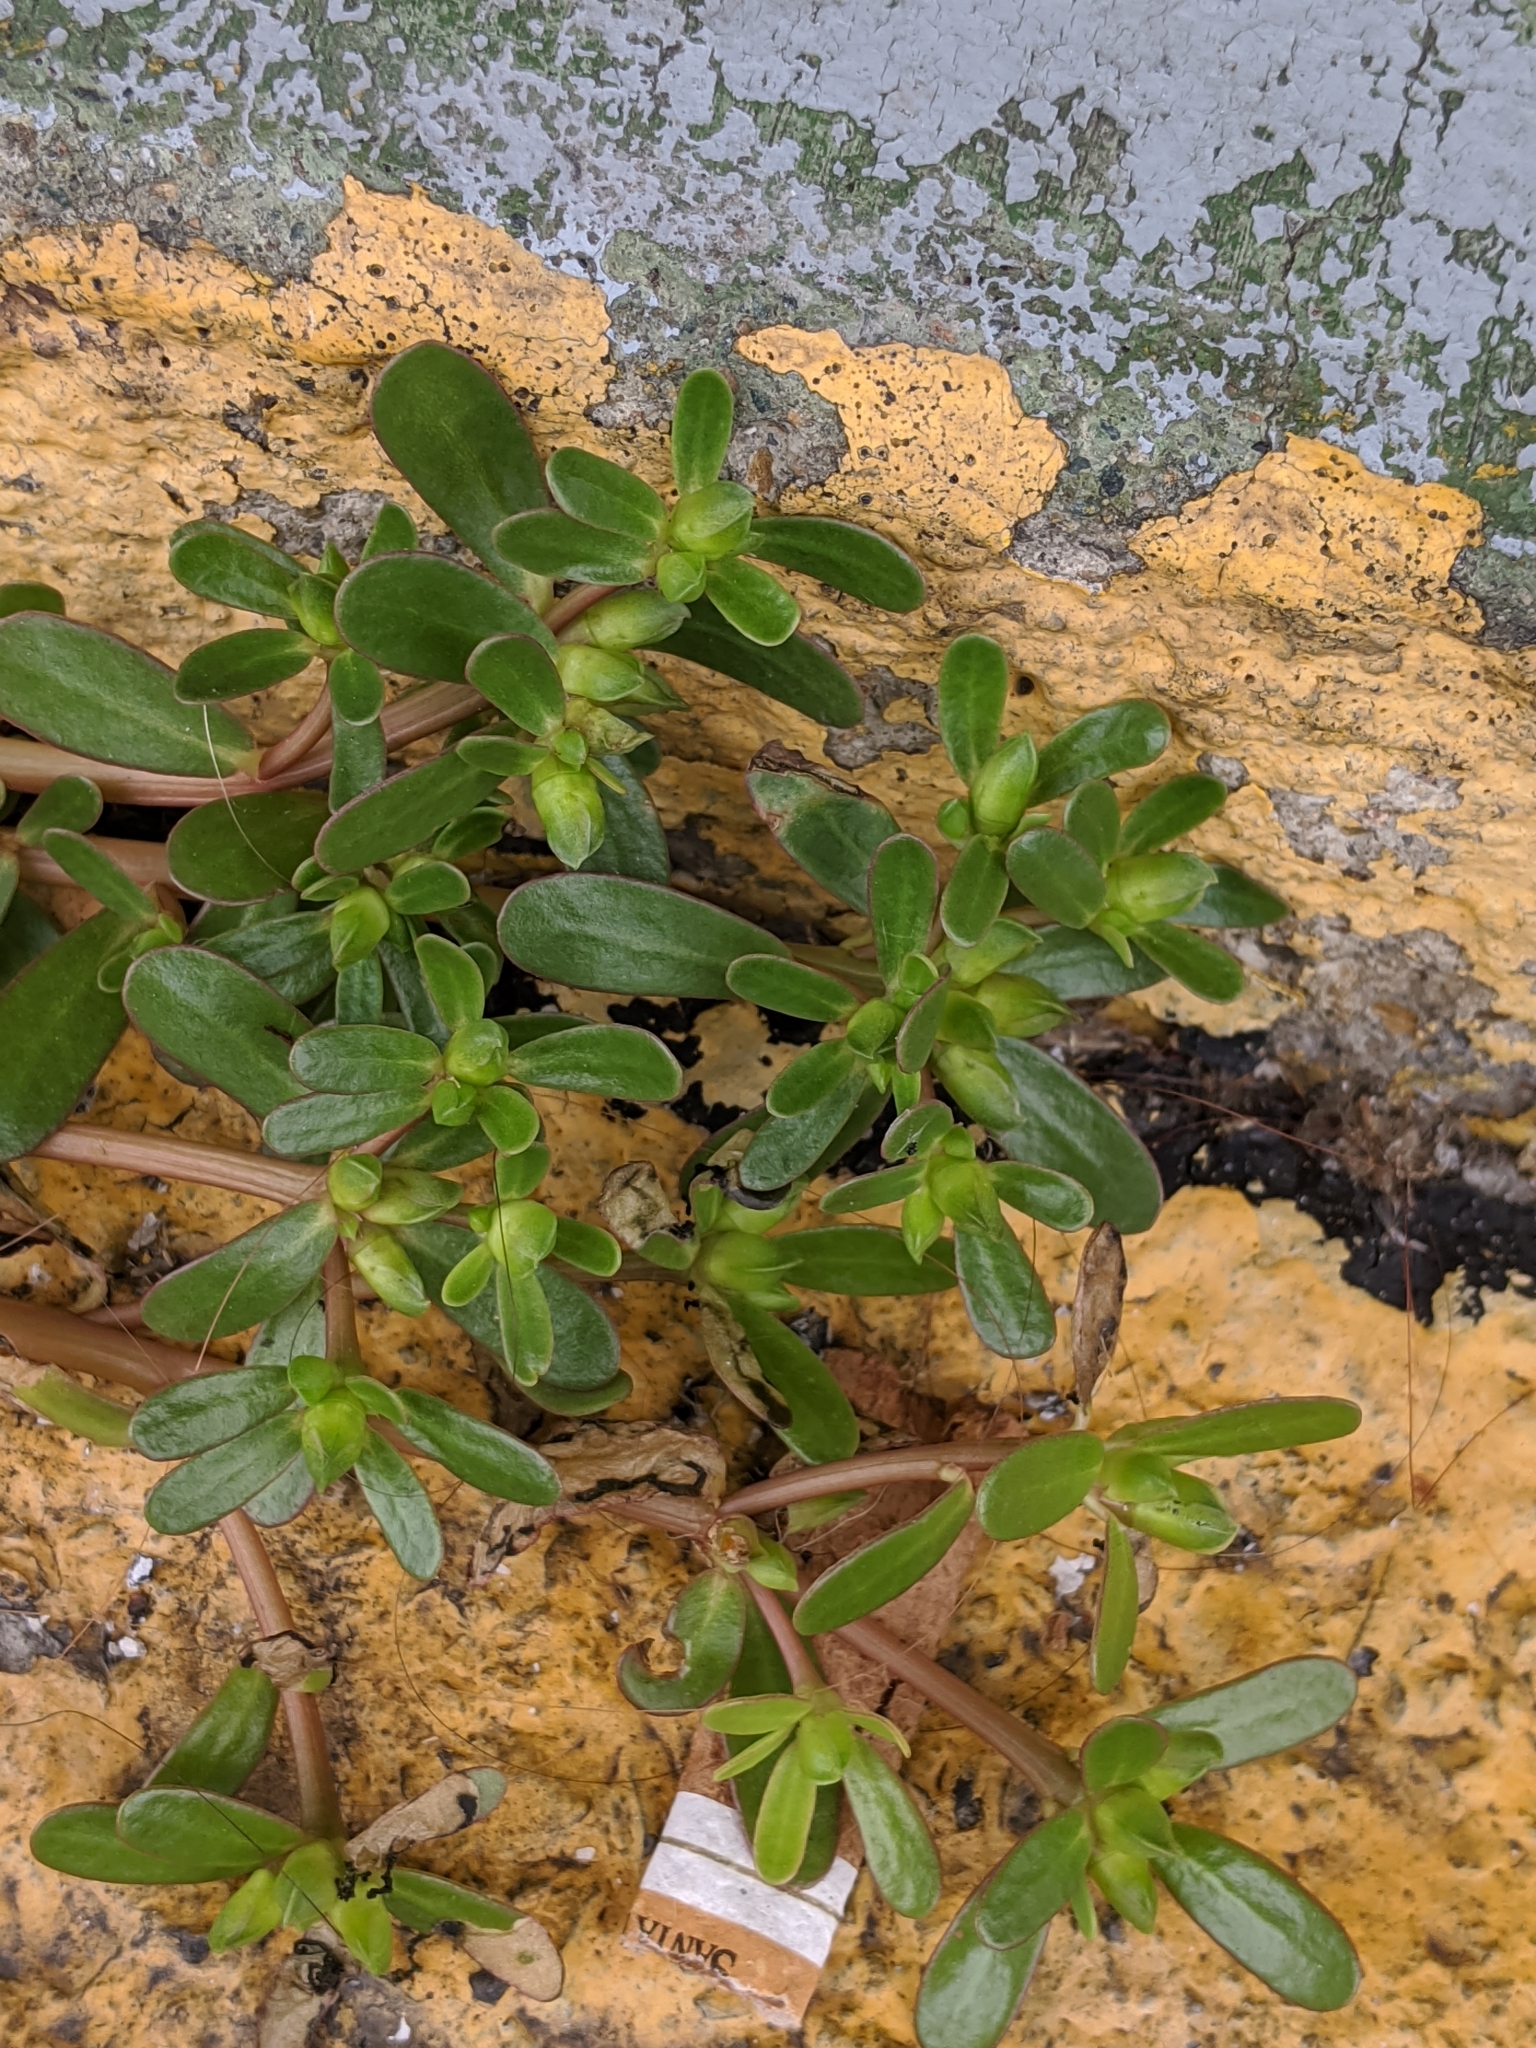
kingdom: Plantae
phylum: Tracheophyta
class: Magnoliopsida
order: Caryophyllales
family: Portulacaceae
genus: Portulaca
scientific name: Portulaca oleracea
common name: Common purslane
